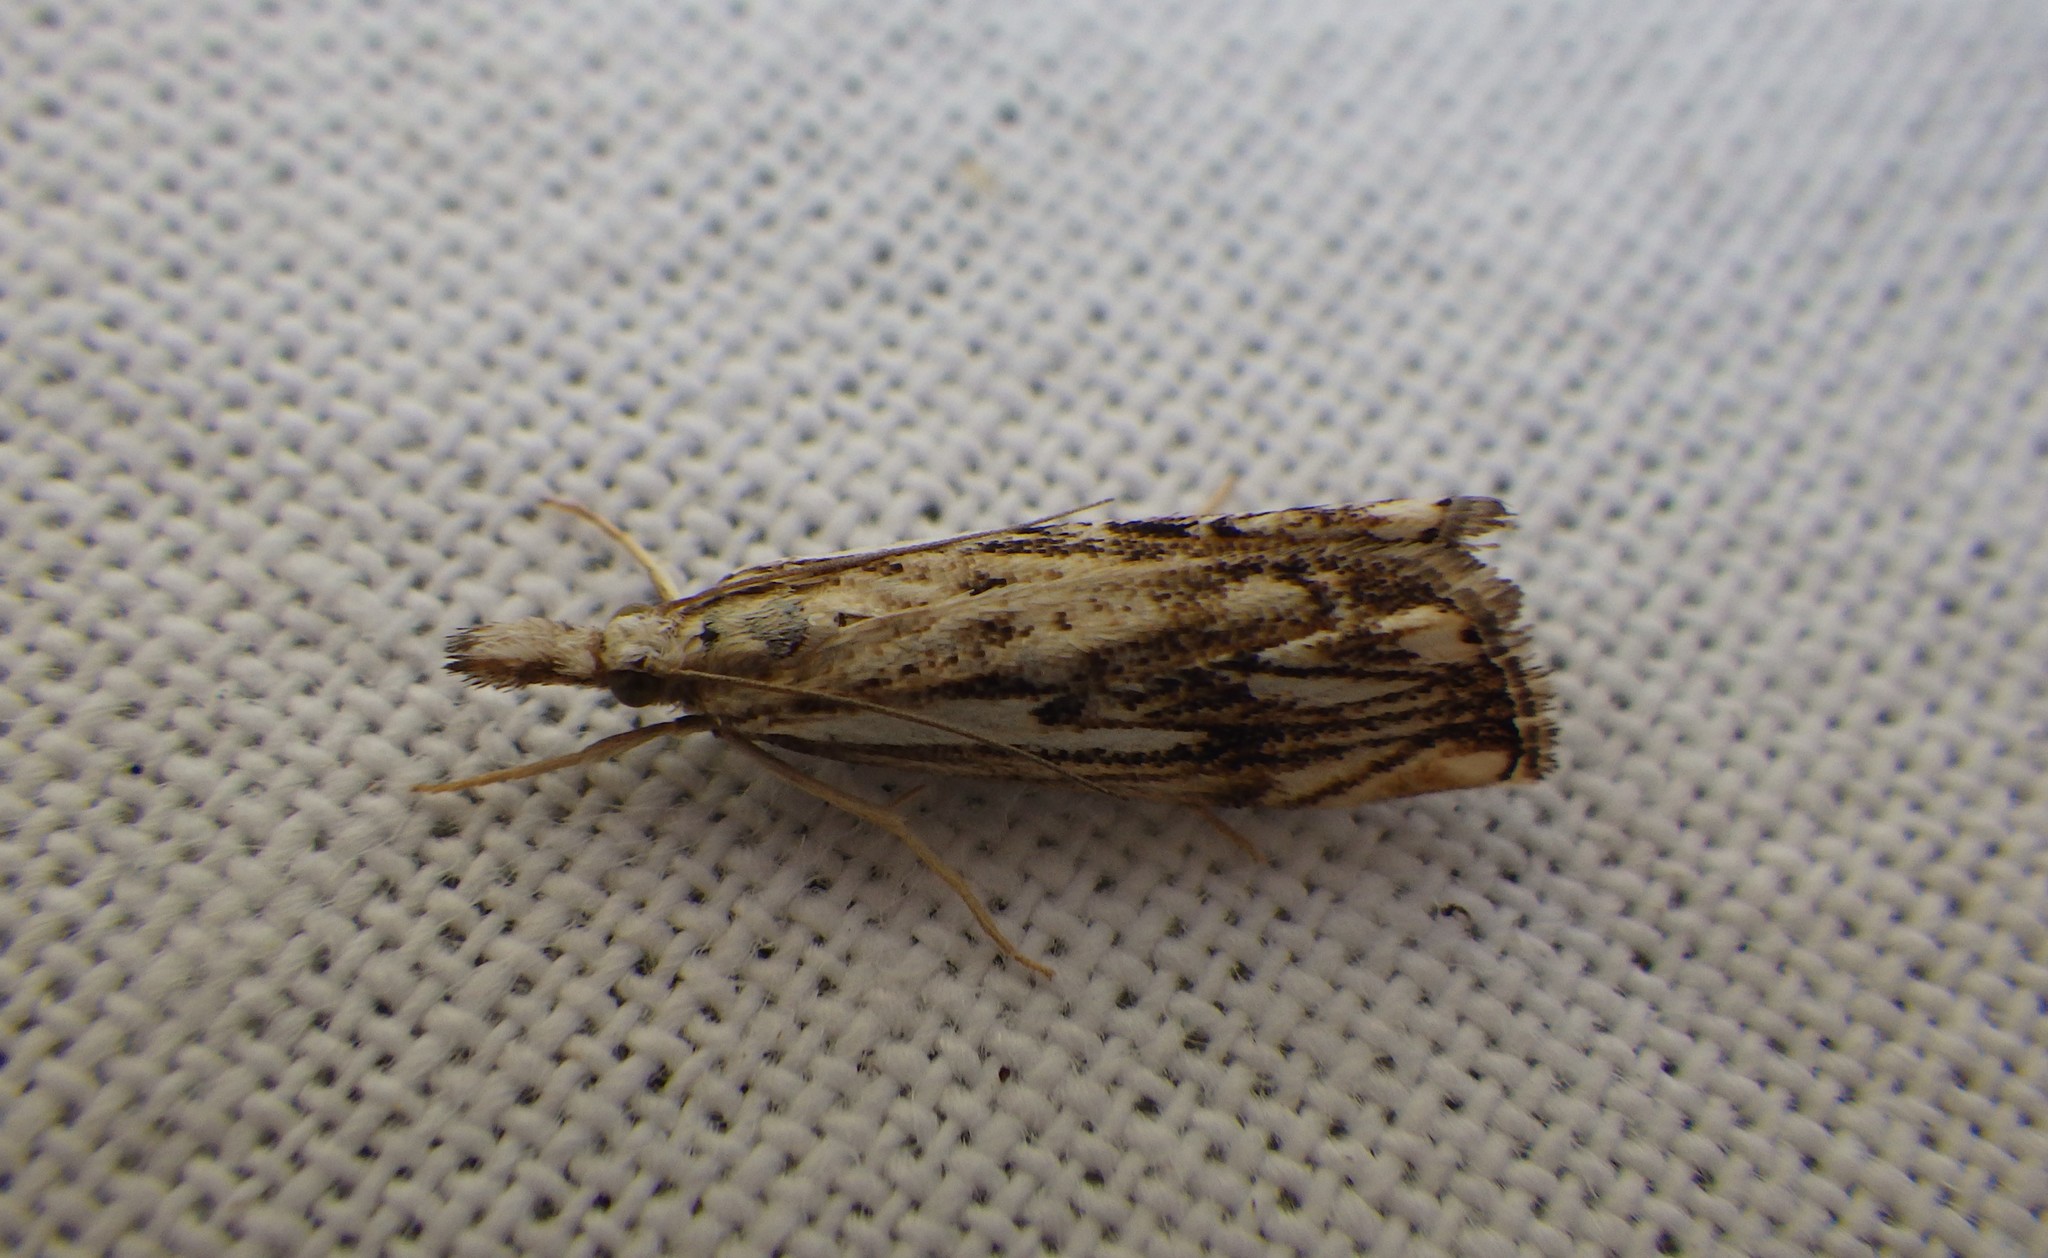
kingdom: Animalia
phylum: Arthropoda
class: Insecta
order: Lepidoptera
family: Crambidae
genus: Catoptria
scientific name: Catoptria falsella
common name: Chequered grass-veneer
